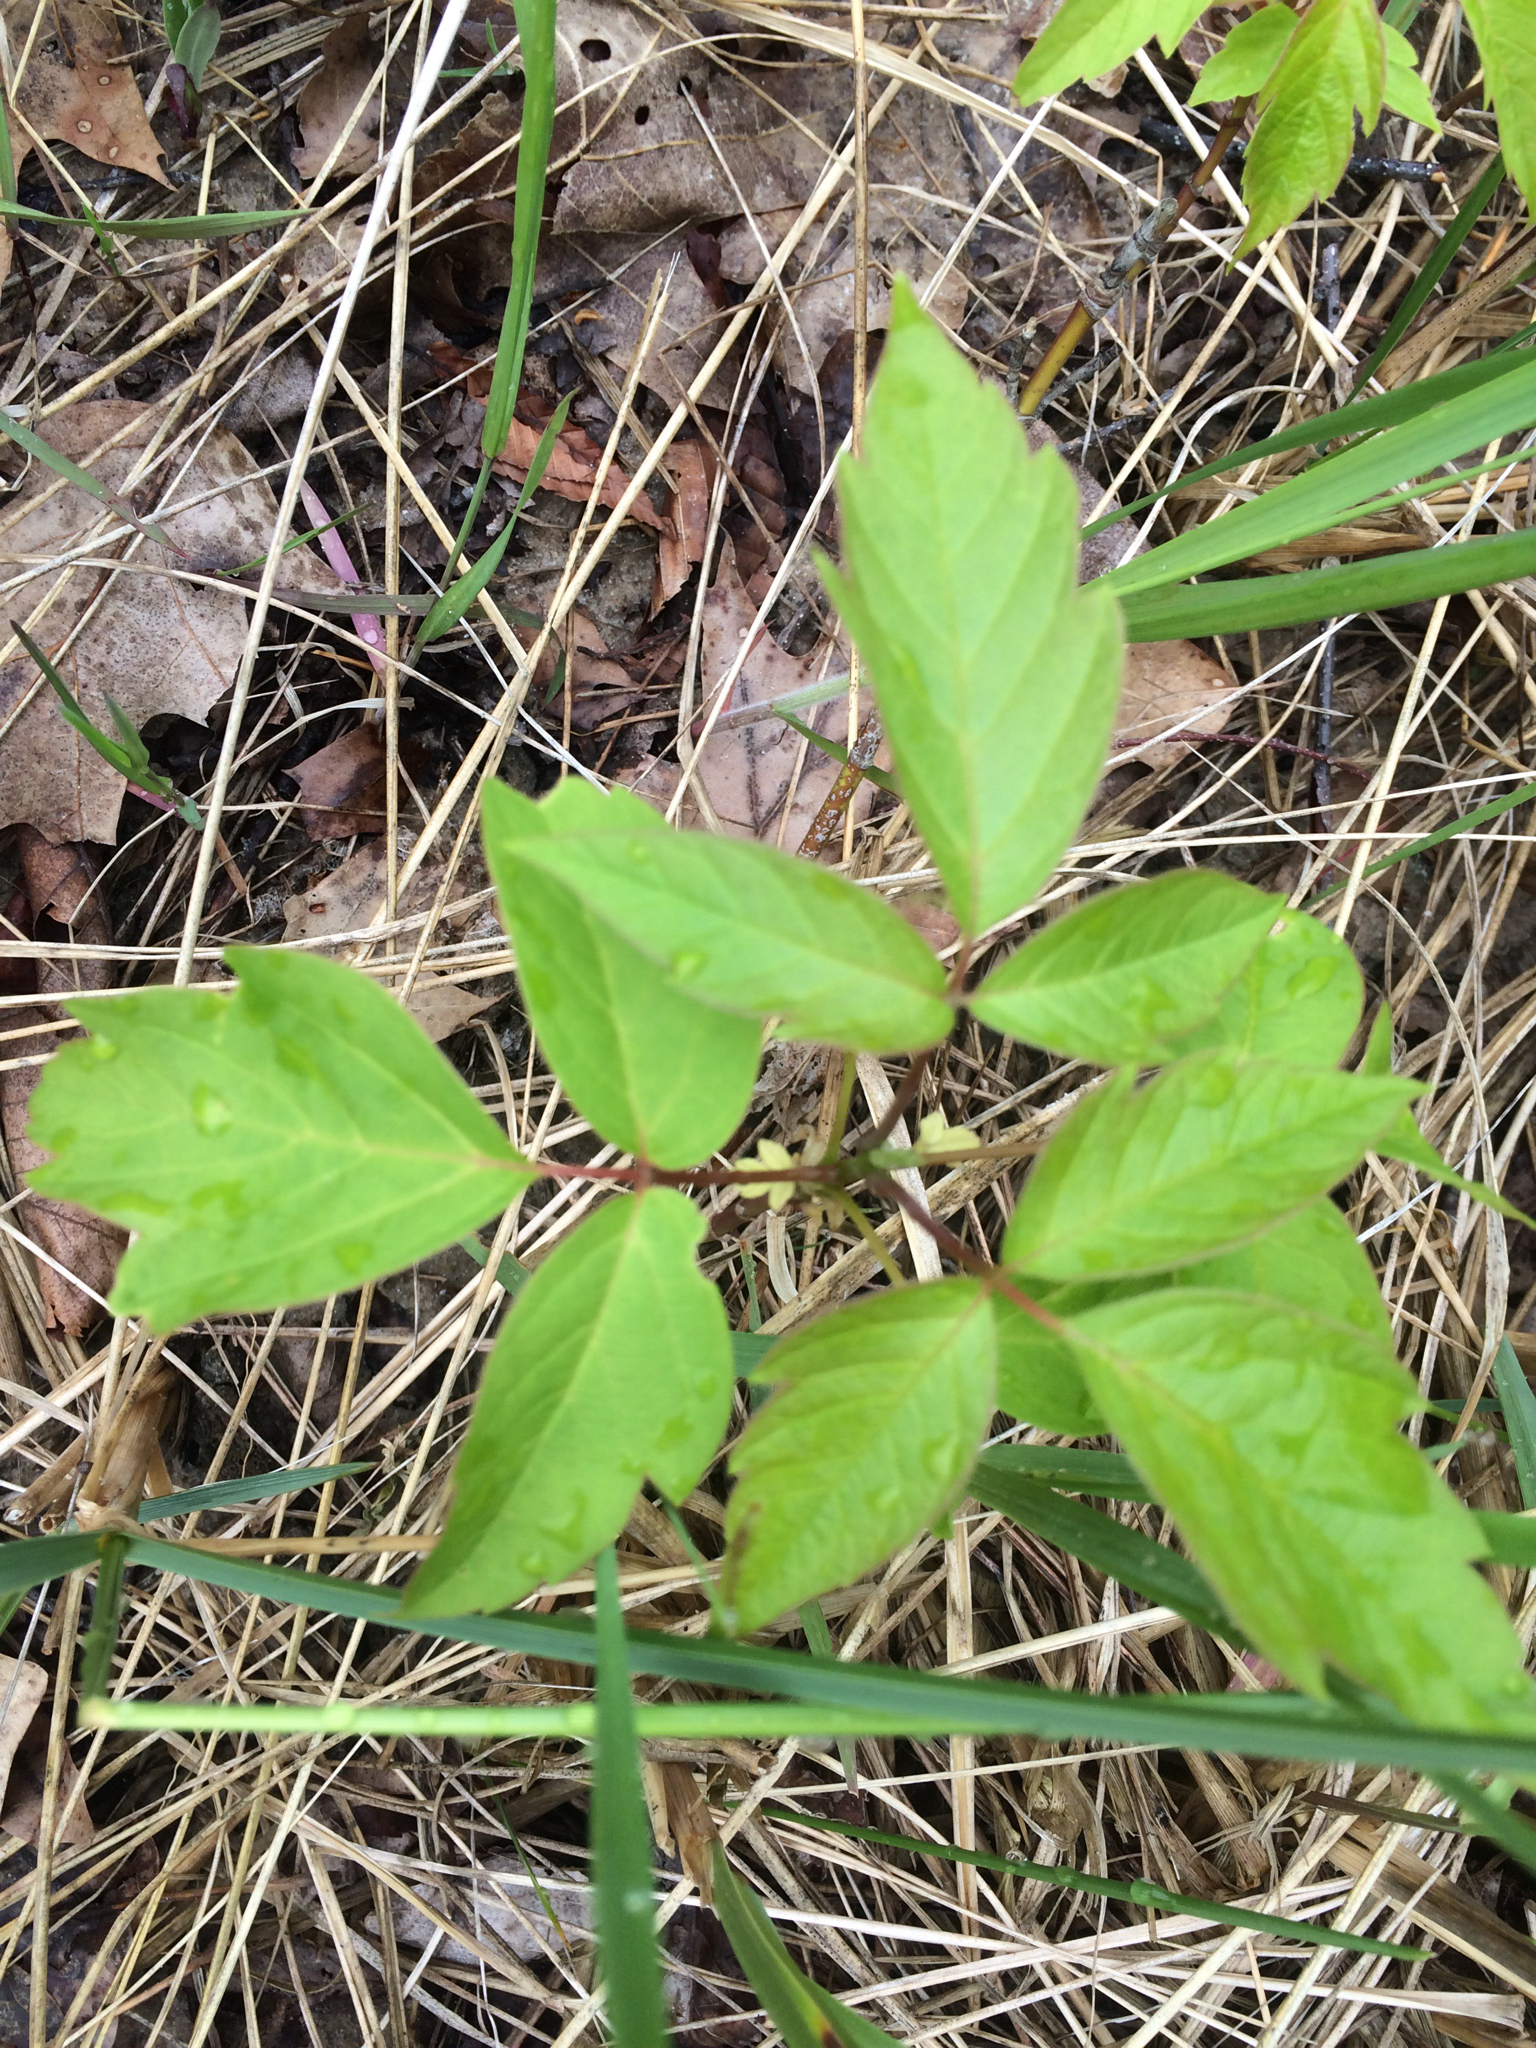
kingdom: Plantae
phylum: Tracheophyta
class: Magnoliopsida
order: Sapindales
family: Sapindaceae
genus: Acer
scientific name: Acer negundo
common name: Ashleaf maple
